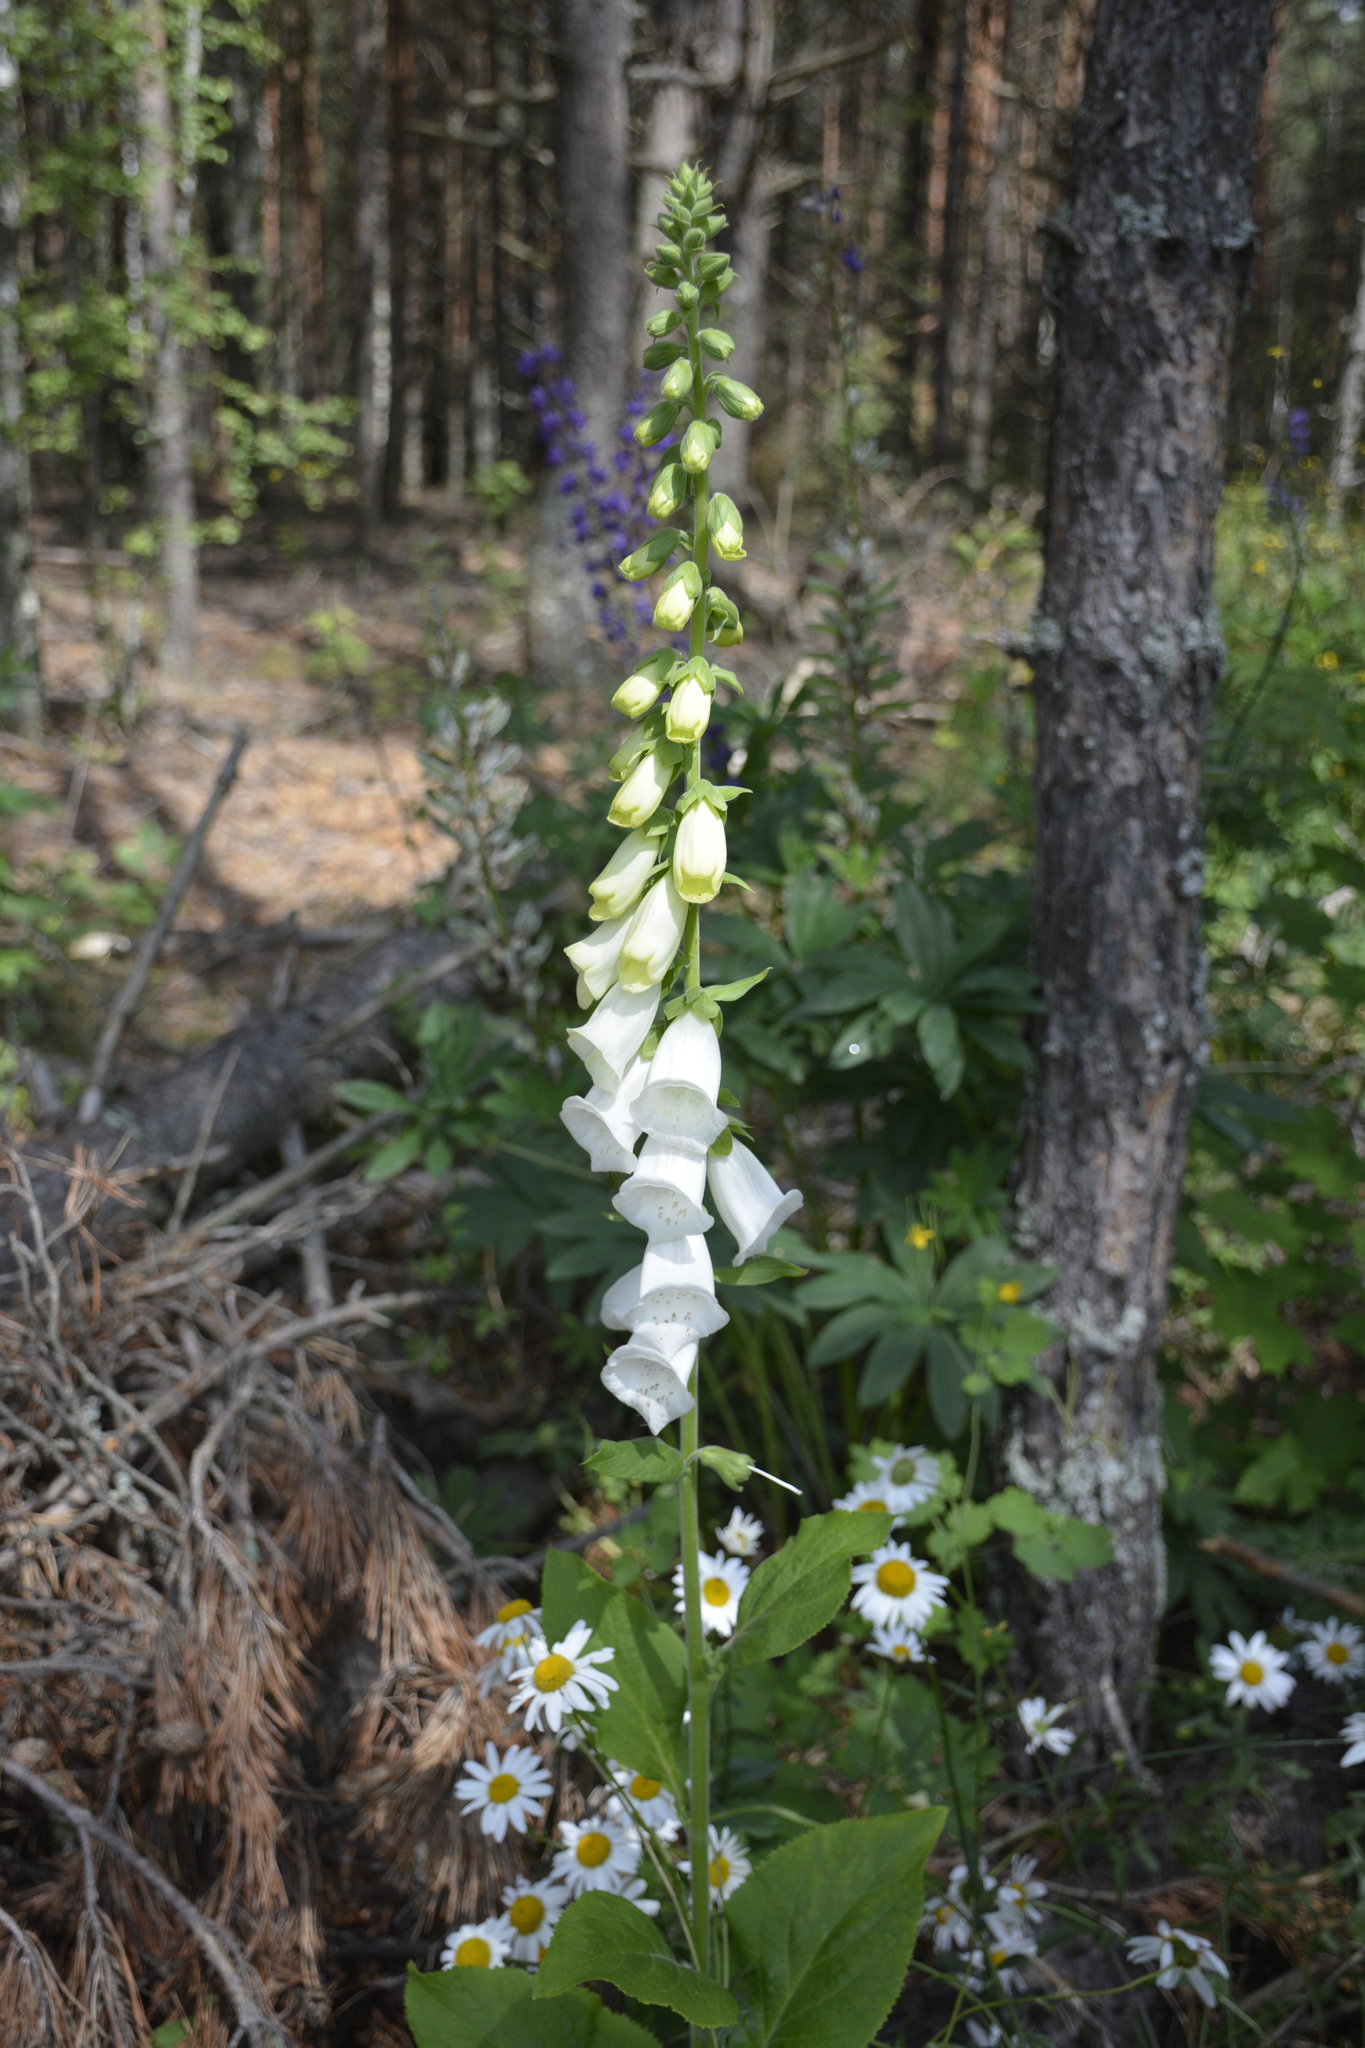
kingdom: Plantae
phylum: Tracheophyta
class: Magnoliopsida
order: Lamiales
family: Plantaginaceae
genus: Digitalis
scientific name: Digitalis purpurea
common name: Foxglove
